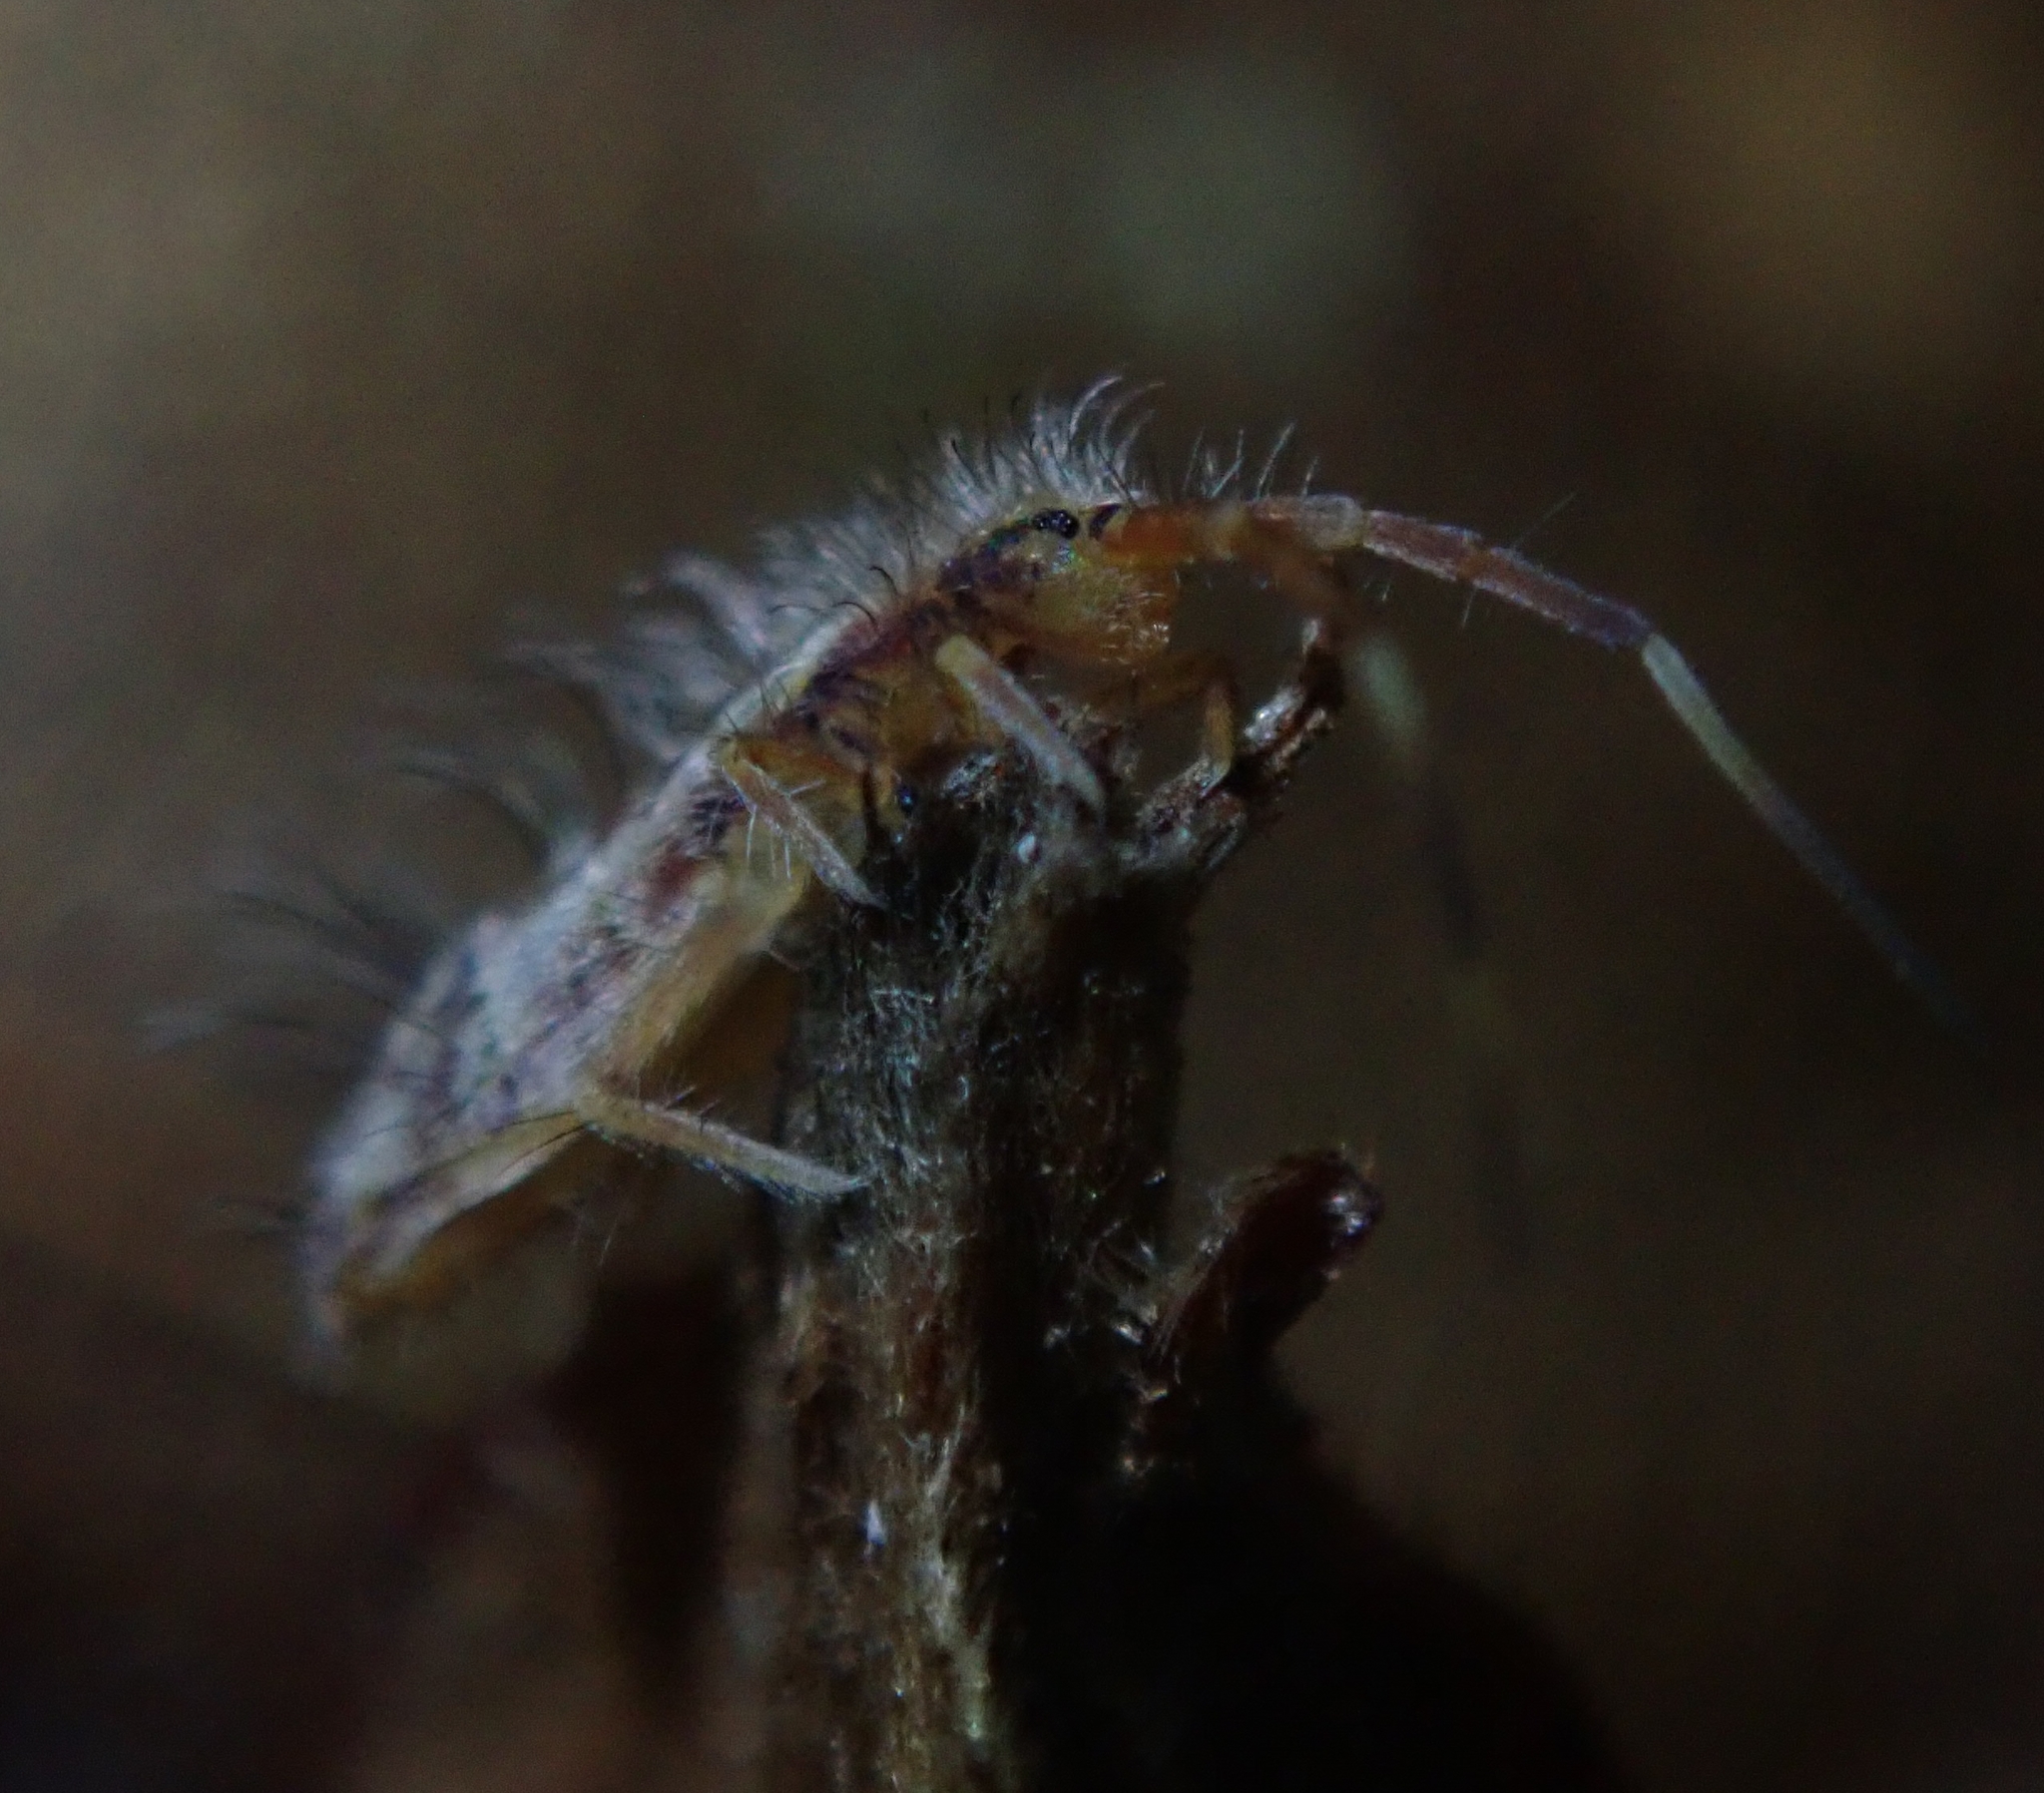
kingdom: Animalia
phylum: Arthropoda
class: Collembola
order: Entomobryomorpha
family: Entomobryidae
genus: Entomobrya
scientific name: Entomobrya nivalis
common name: Cosmopolitan springtail
